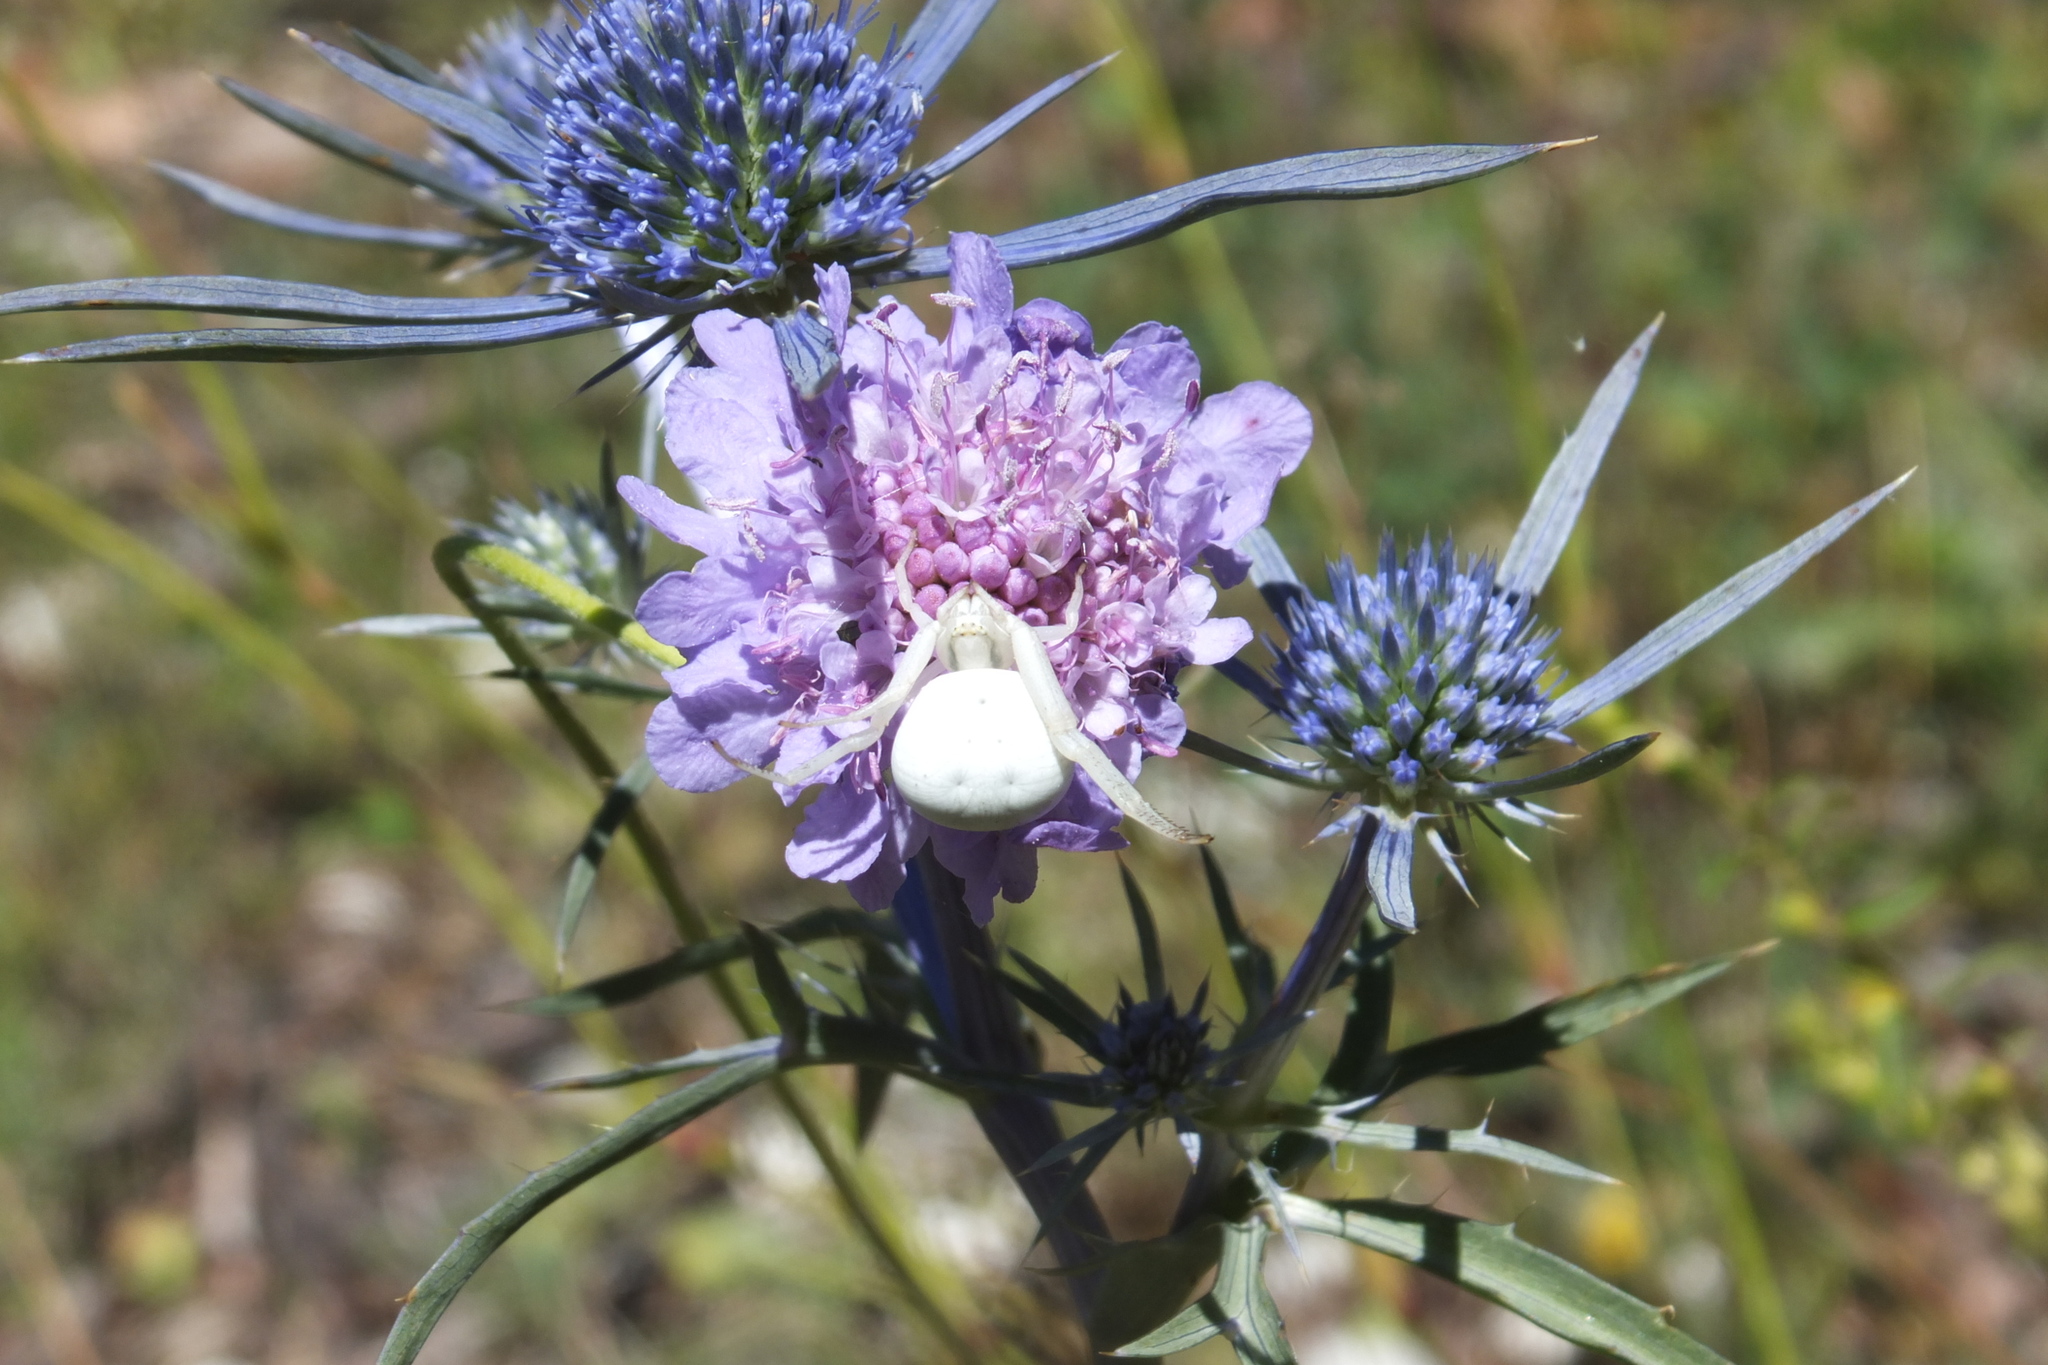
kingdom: Animalia
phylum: Arthropoda
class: Arachnida
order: Araneae
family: Thomisidae
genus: Misumena
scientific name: Misumena vatia
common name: Goldenrod crab spider
